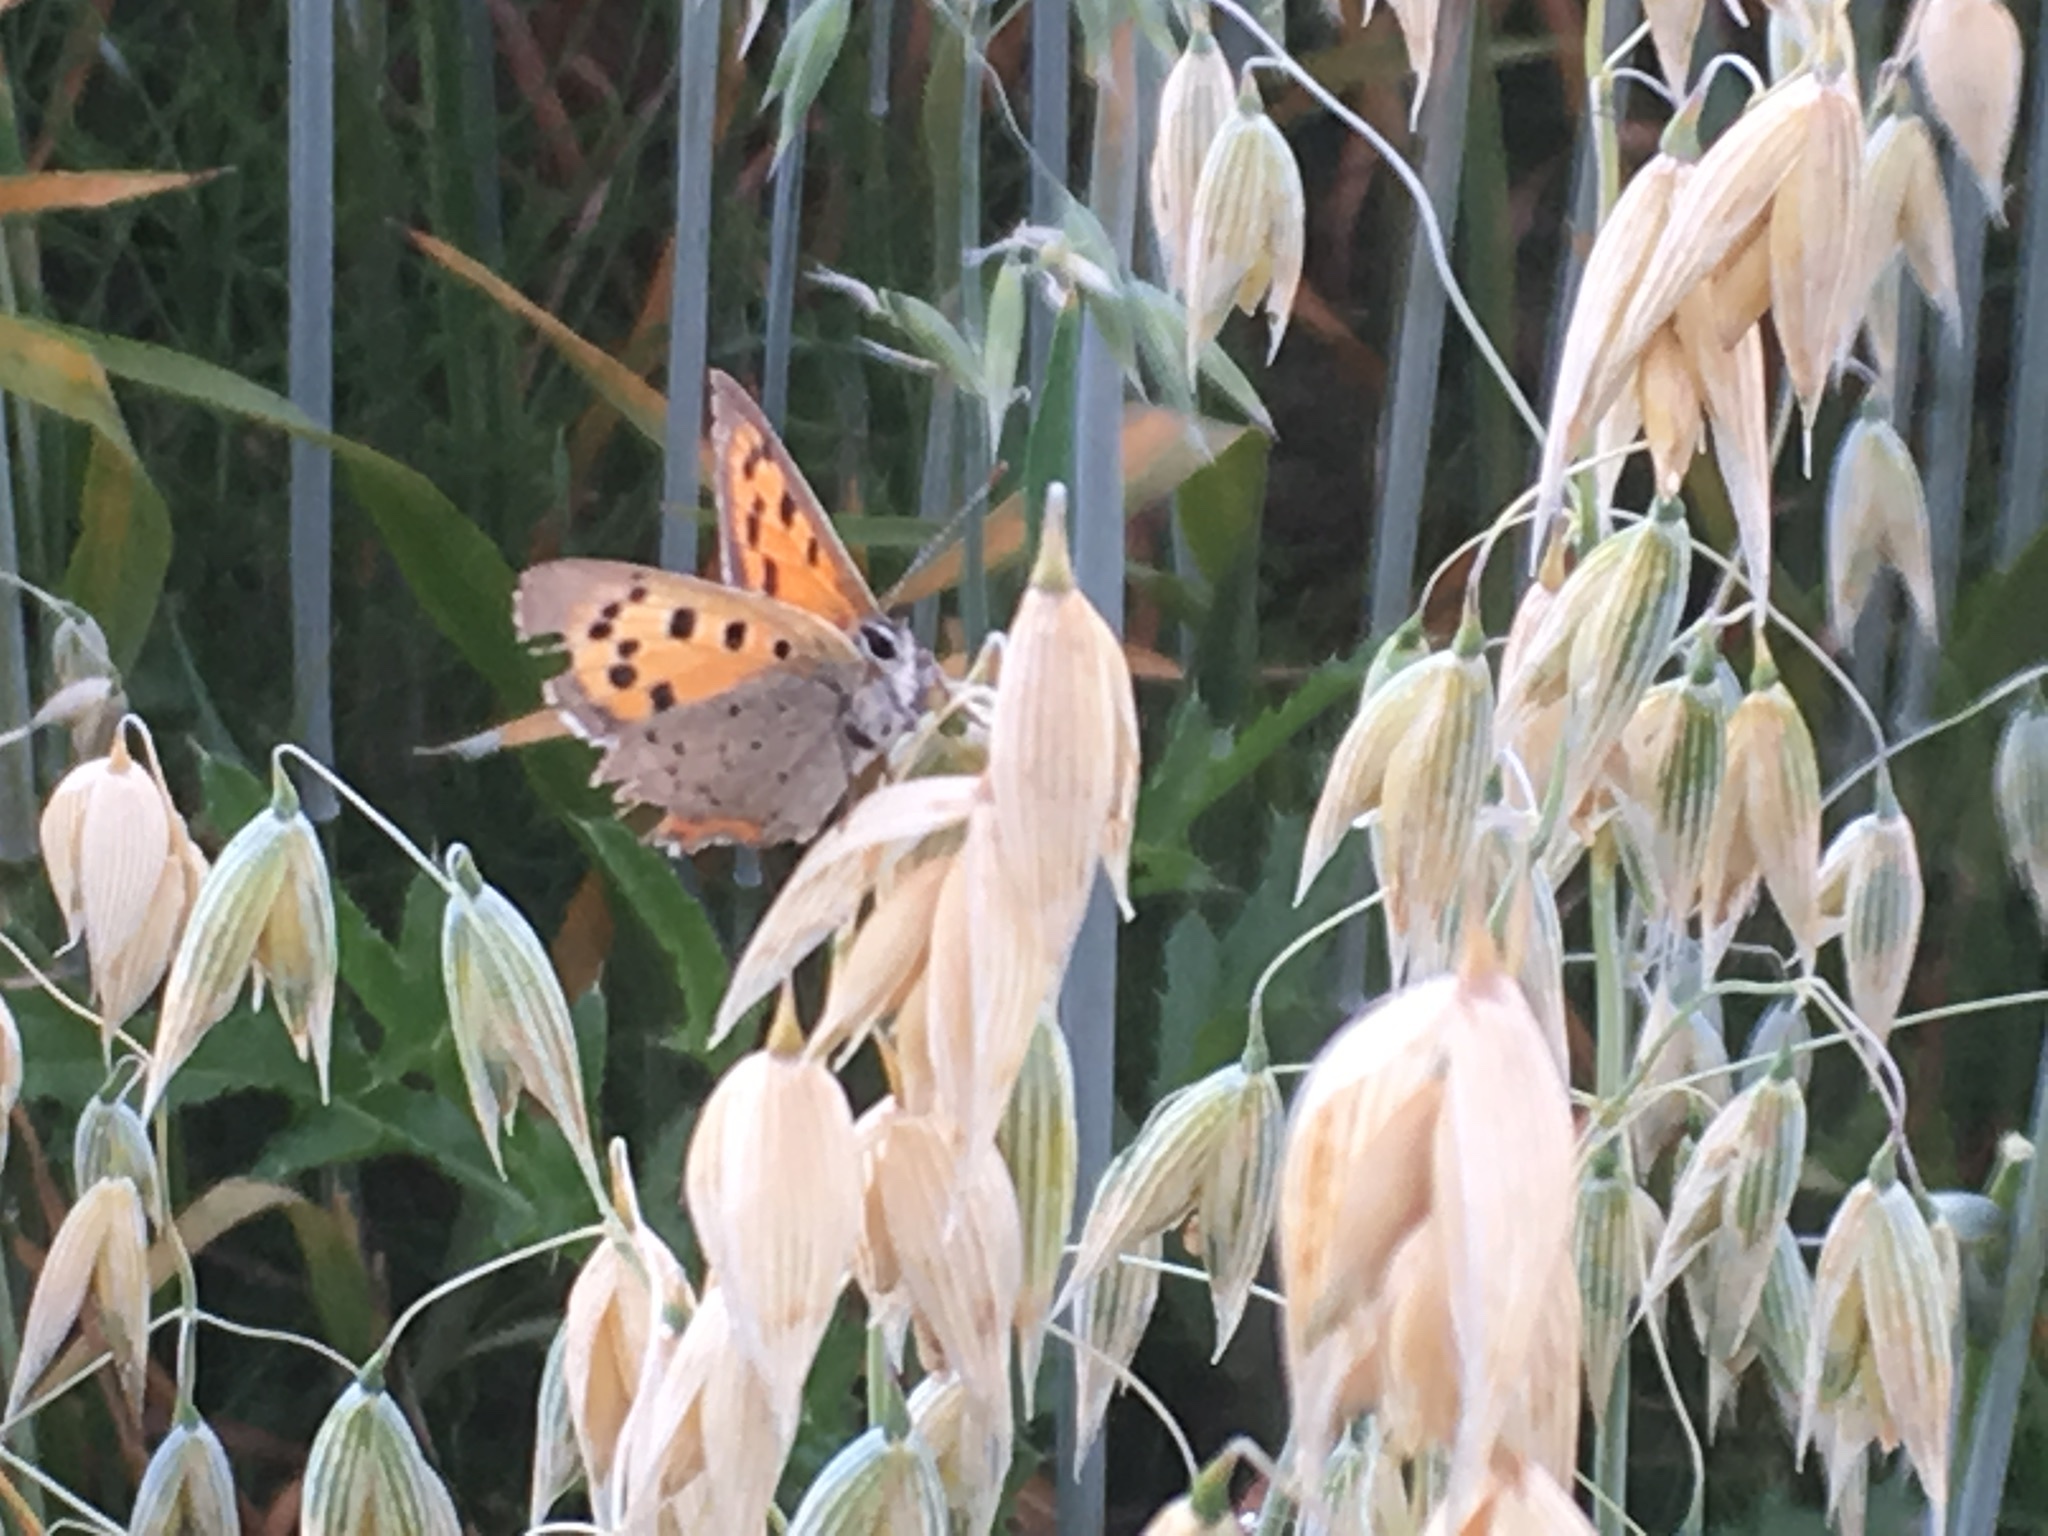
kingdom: Animalia
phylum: Arthropoda
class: Insecta
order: Lepidoptera
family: Lycaenidae
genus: Lycaena
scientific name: Lycaena phlaeas
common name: Small copper
